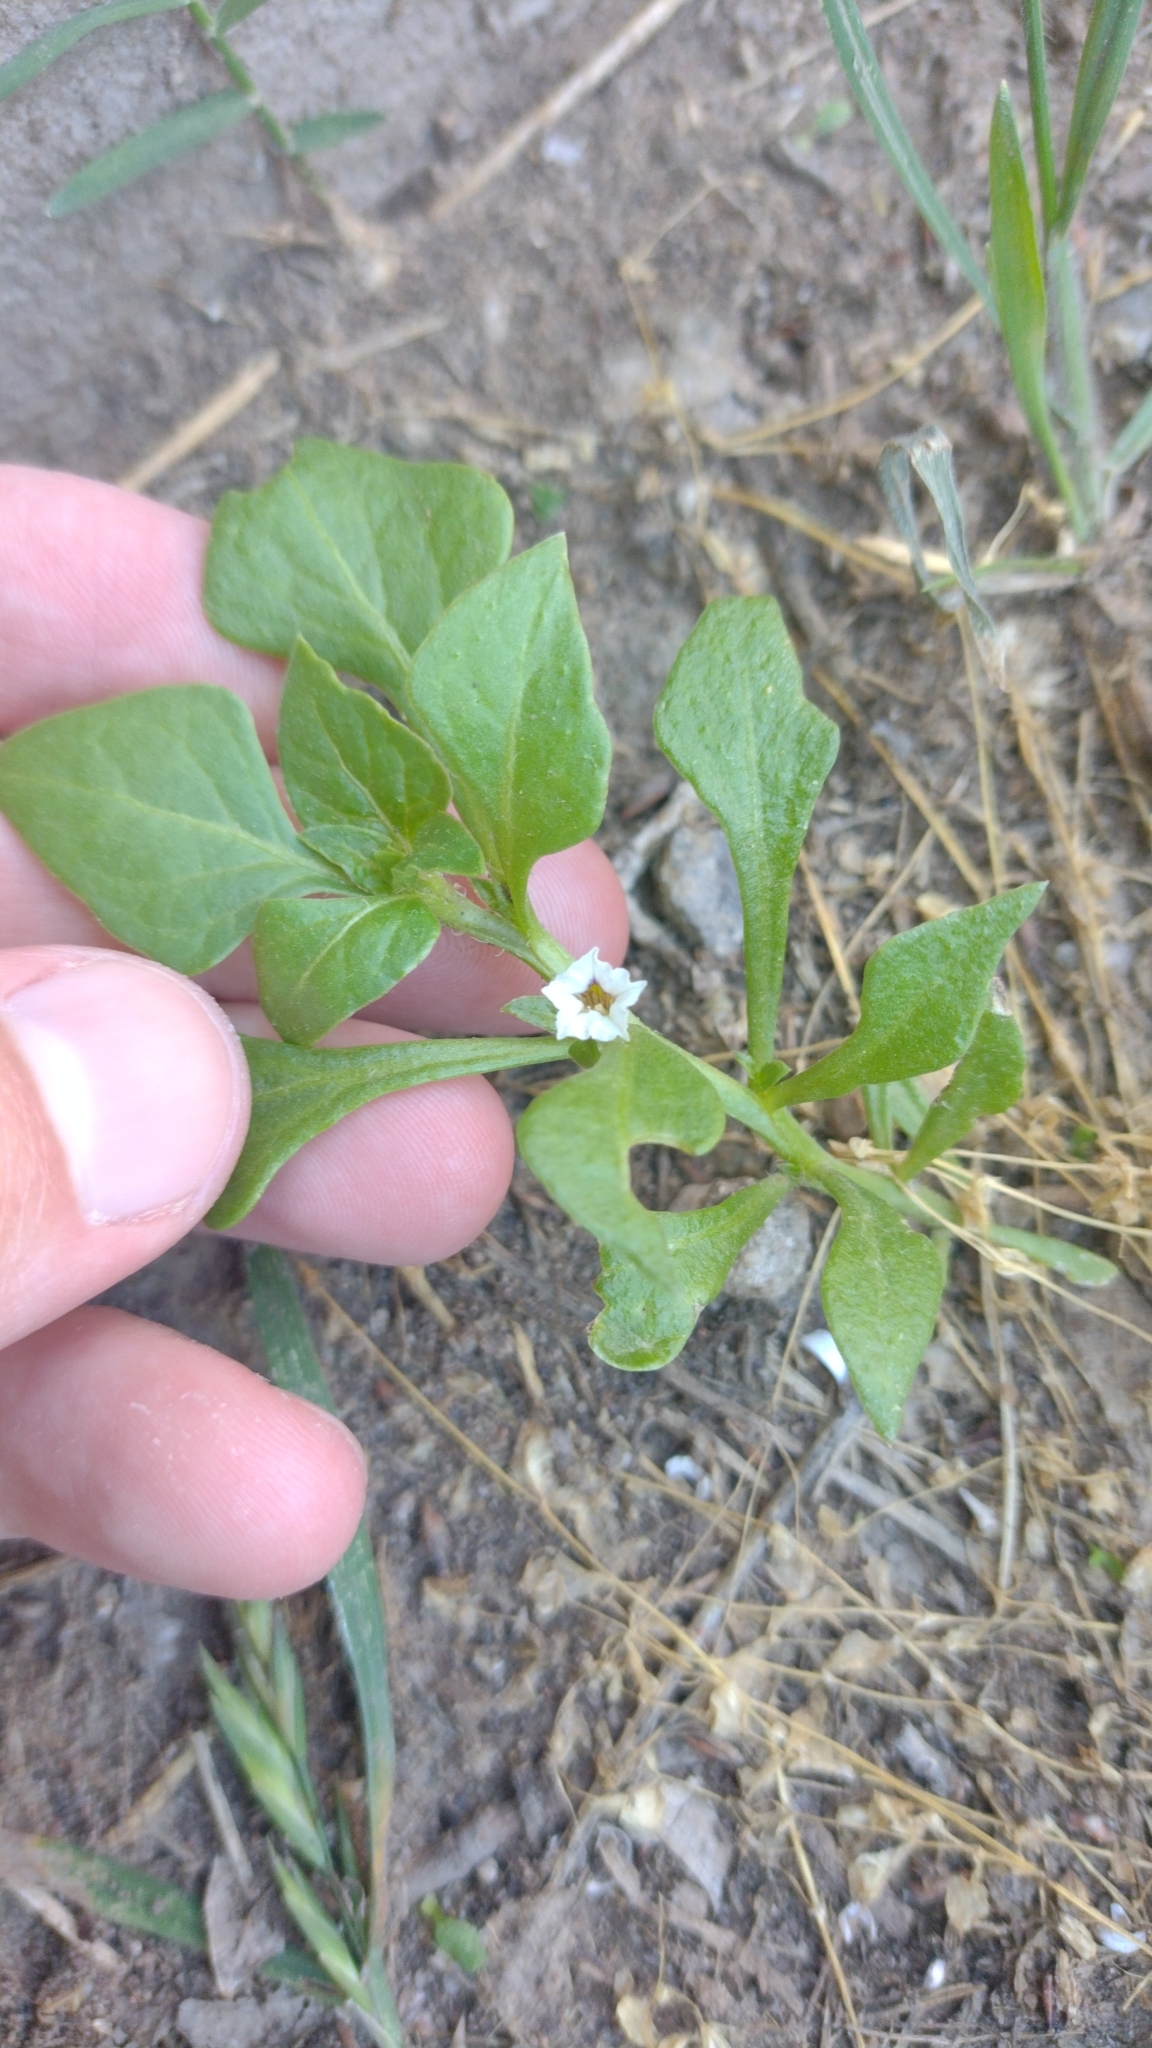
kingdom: Plantae
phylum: Tracheophyta
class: Magnoliopsida
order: Solanales
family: Solanaceae
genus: Sclerophylax
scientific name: Sclerophylax spinescens
